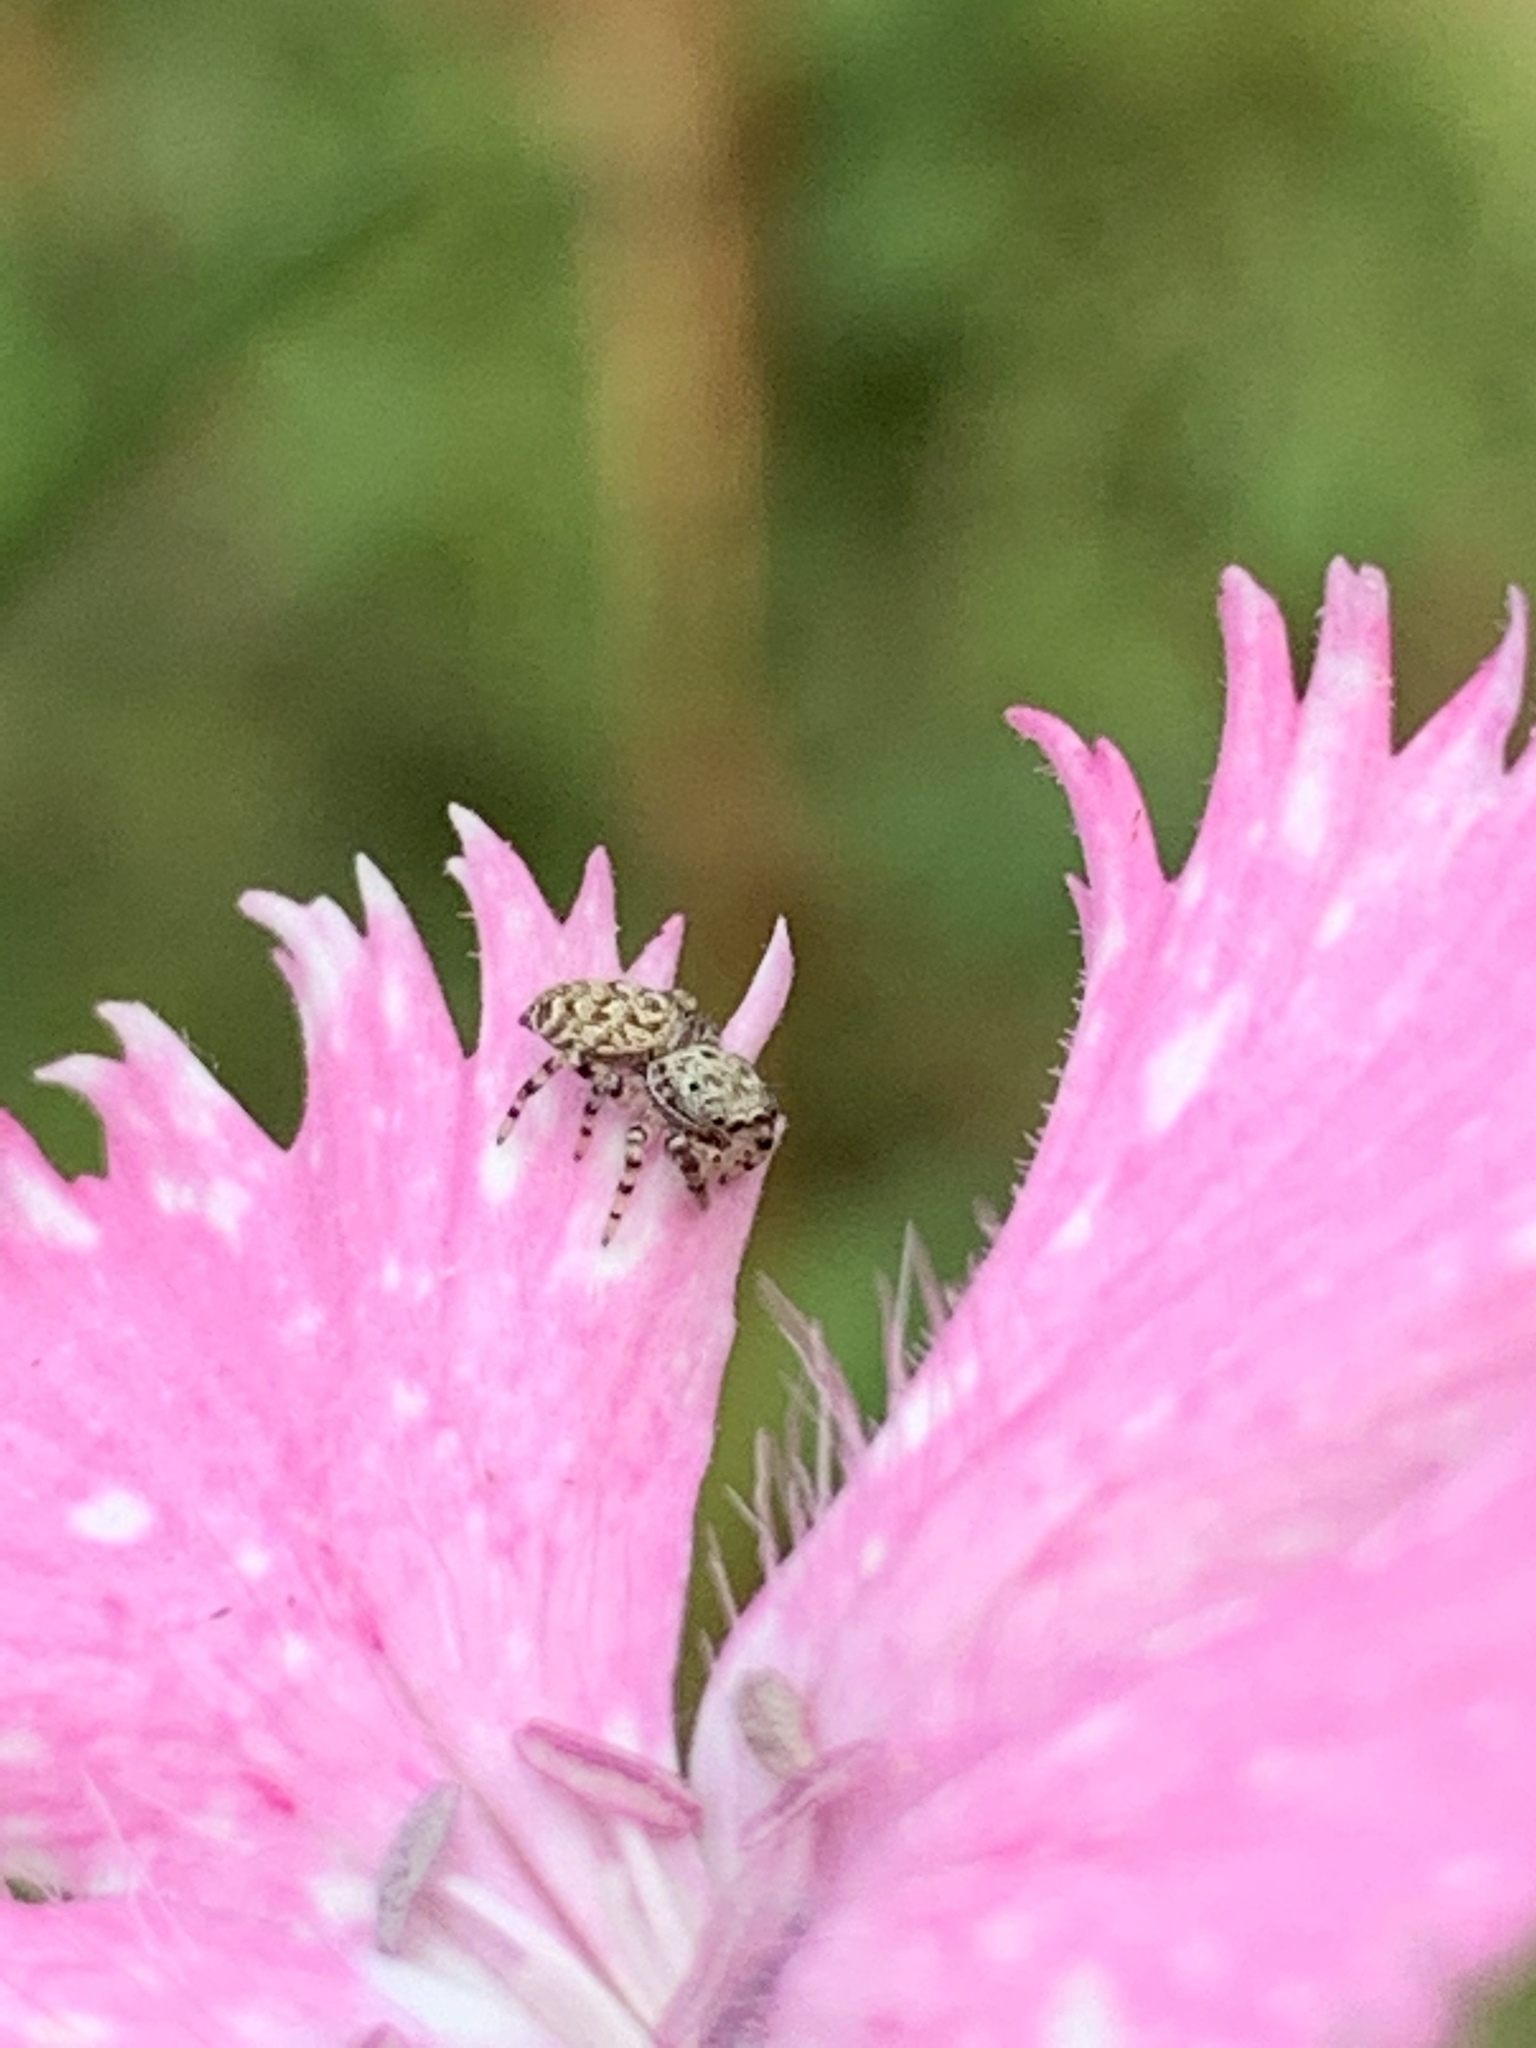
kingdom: Animalia
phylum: Arthropoda
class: Arachnida
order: Araneae
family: Salticidae
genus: Pelegrina
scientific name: Pelegrina galathea
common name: Jumping spiders
